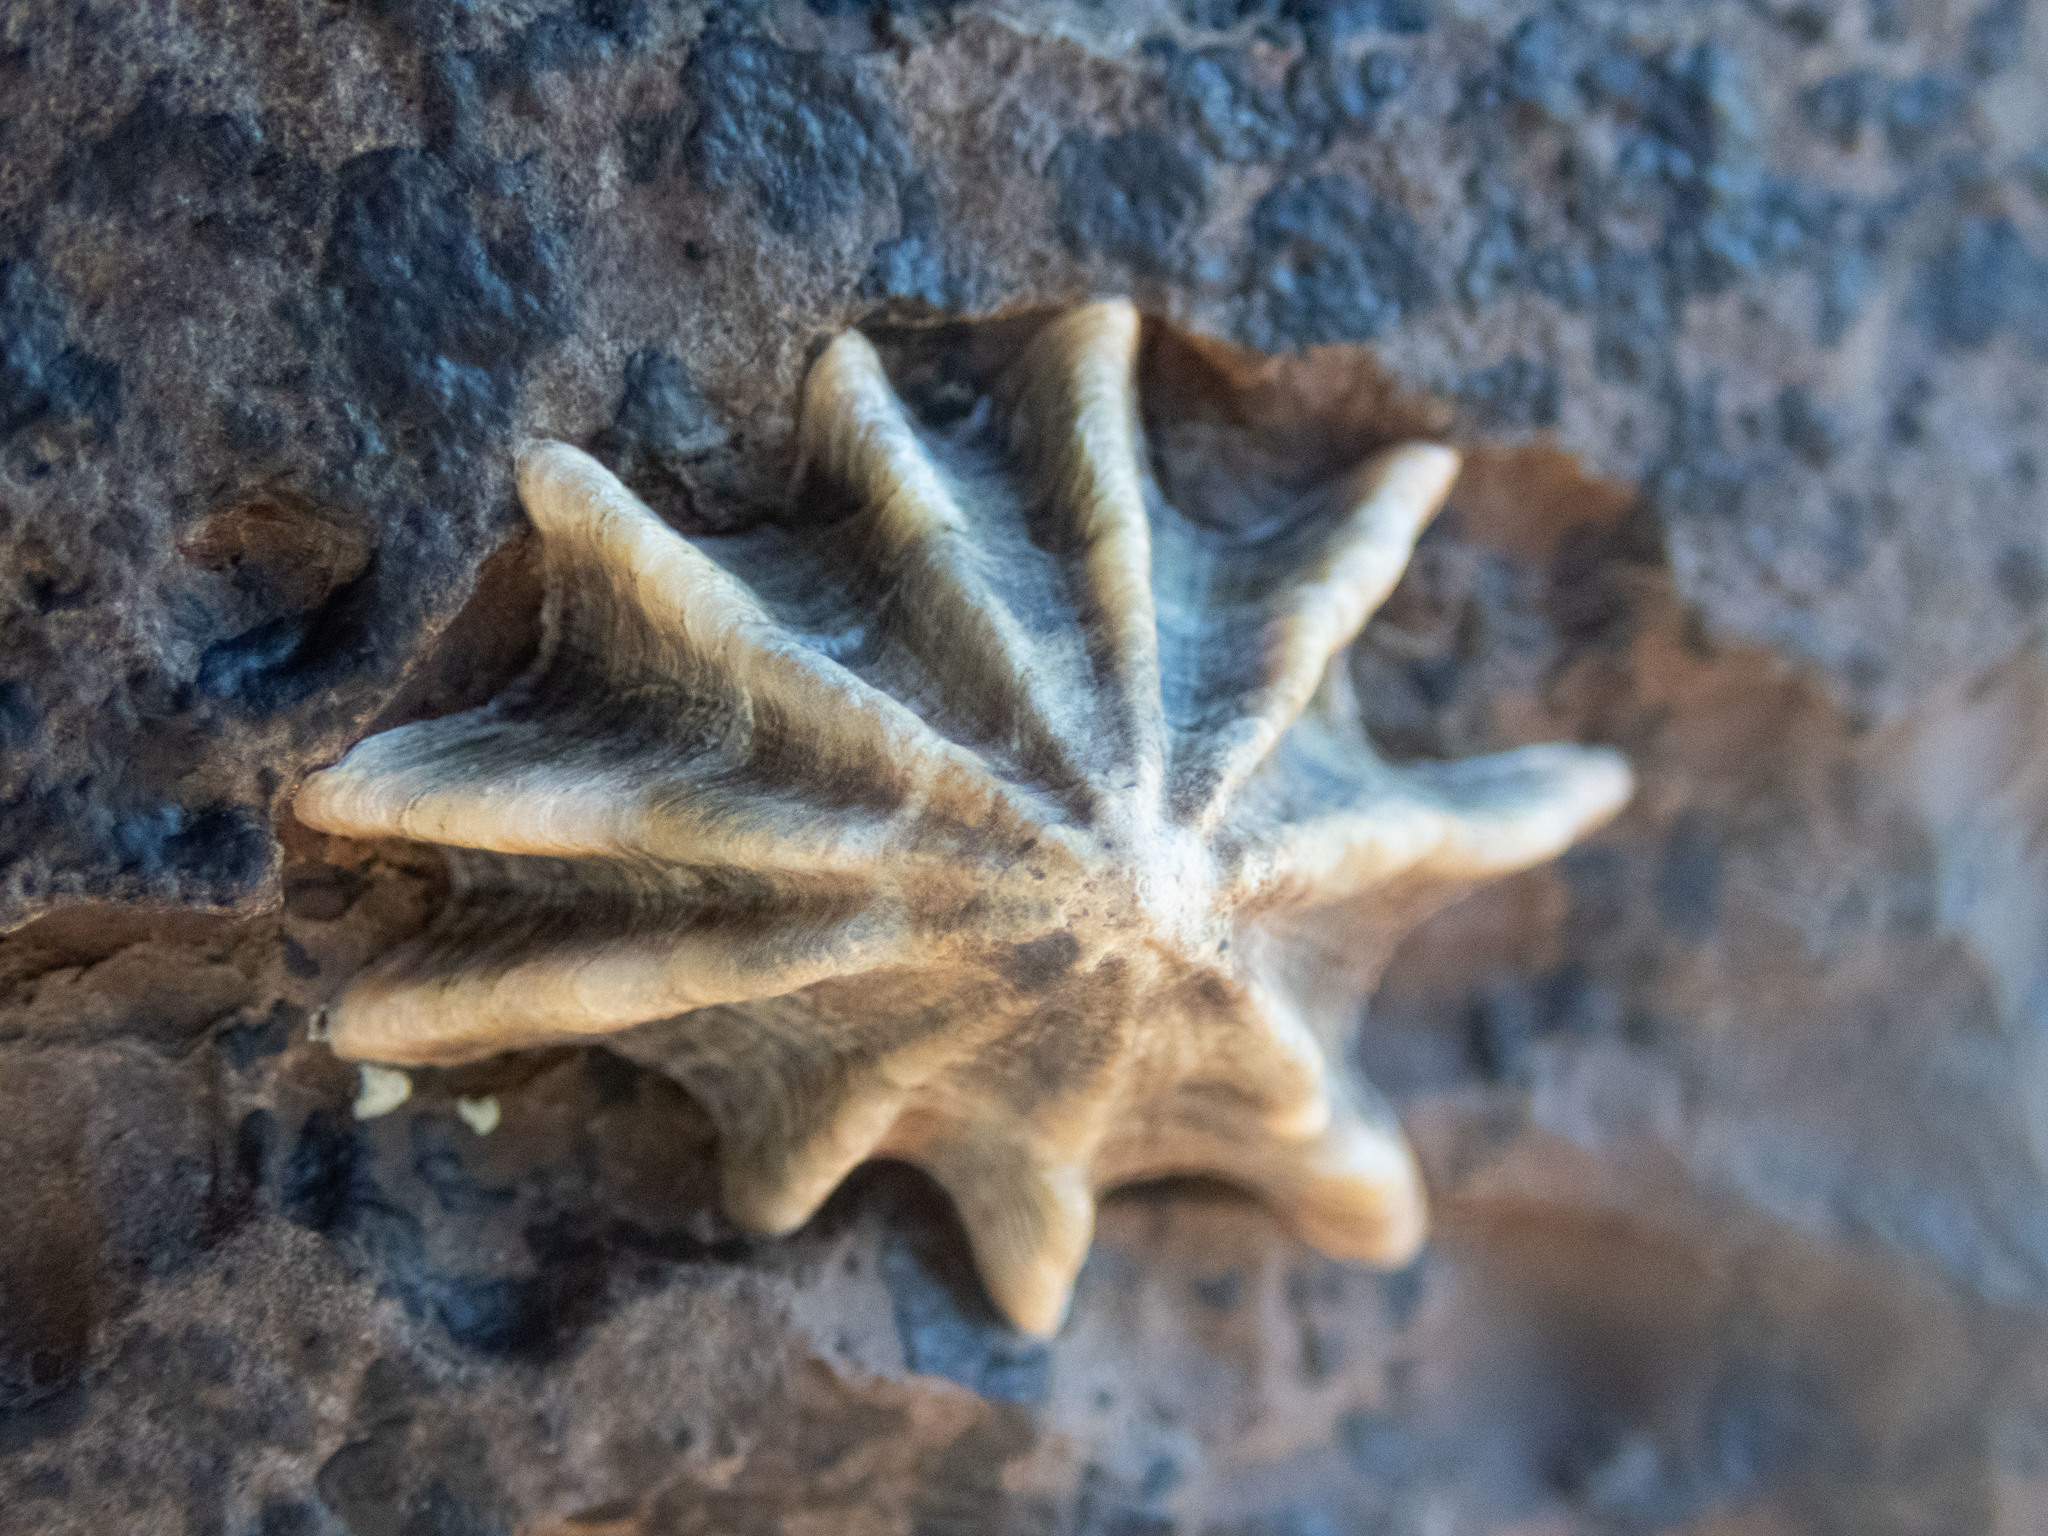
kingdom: Animalia
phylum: Mollusca
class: Gastropoda
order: Siphonariida
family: Siphonariidae
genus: Siphonaria
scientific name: Siphonaria gigas
